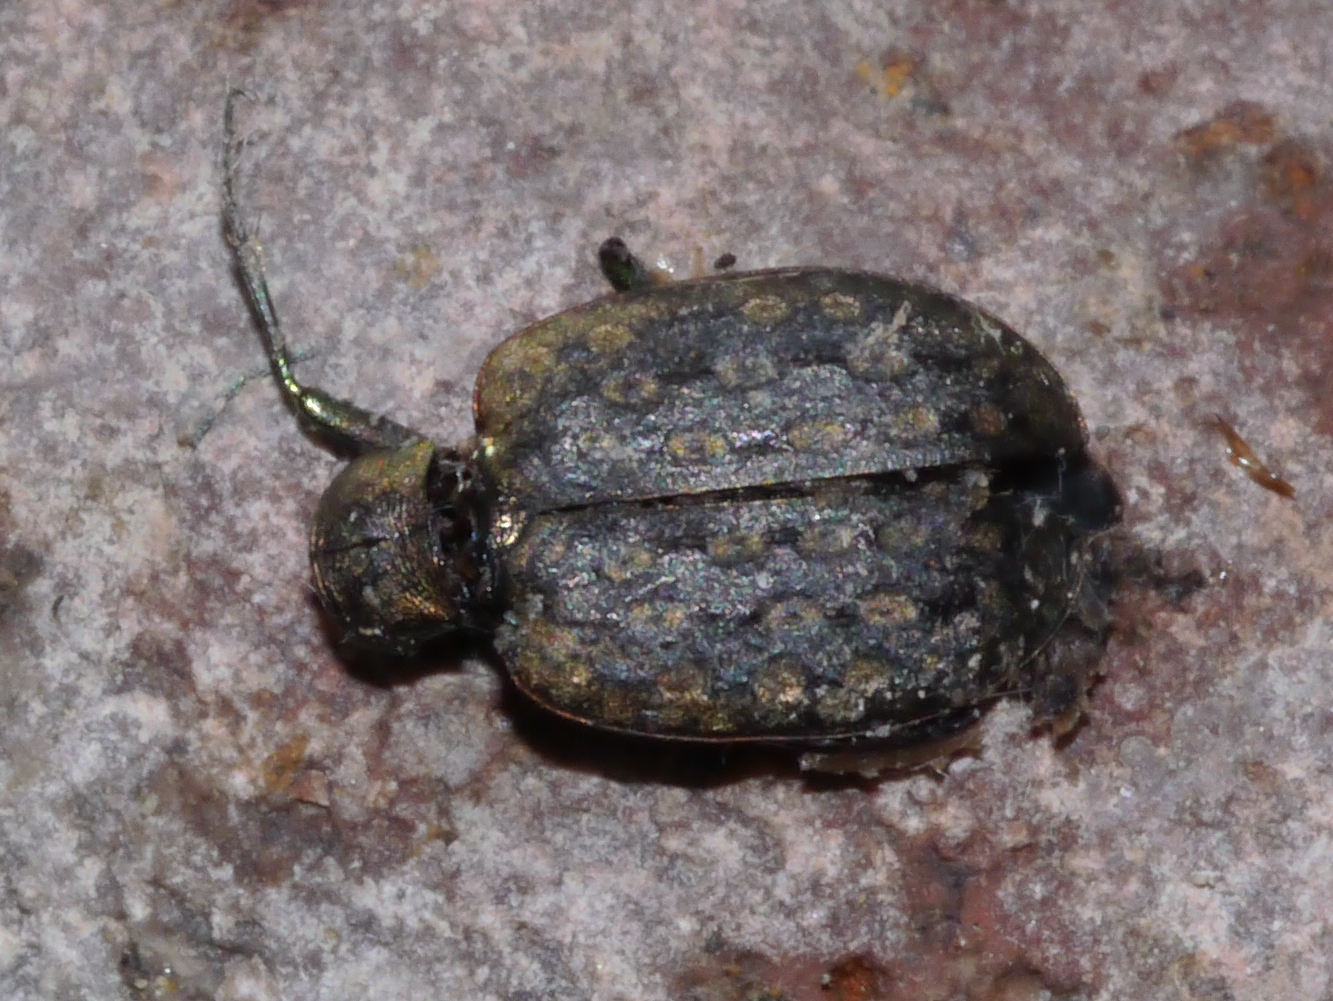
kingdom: Animalia
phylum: Arthropoda
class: Insecta
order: Coleoptera
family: Carabidae
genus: Opisthius
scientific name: Opisthius richardsoni
